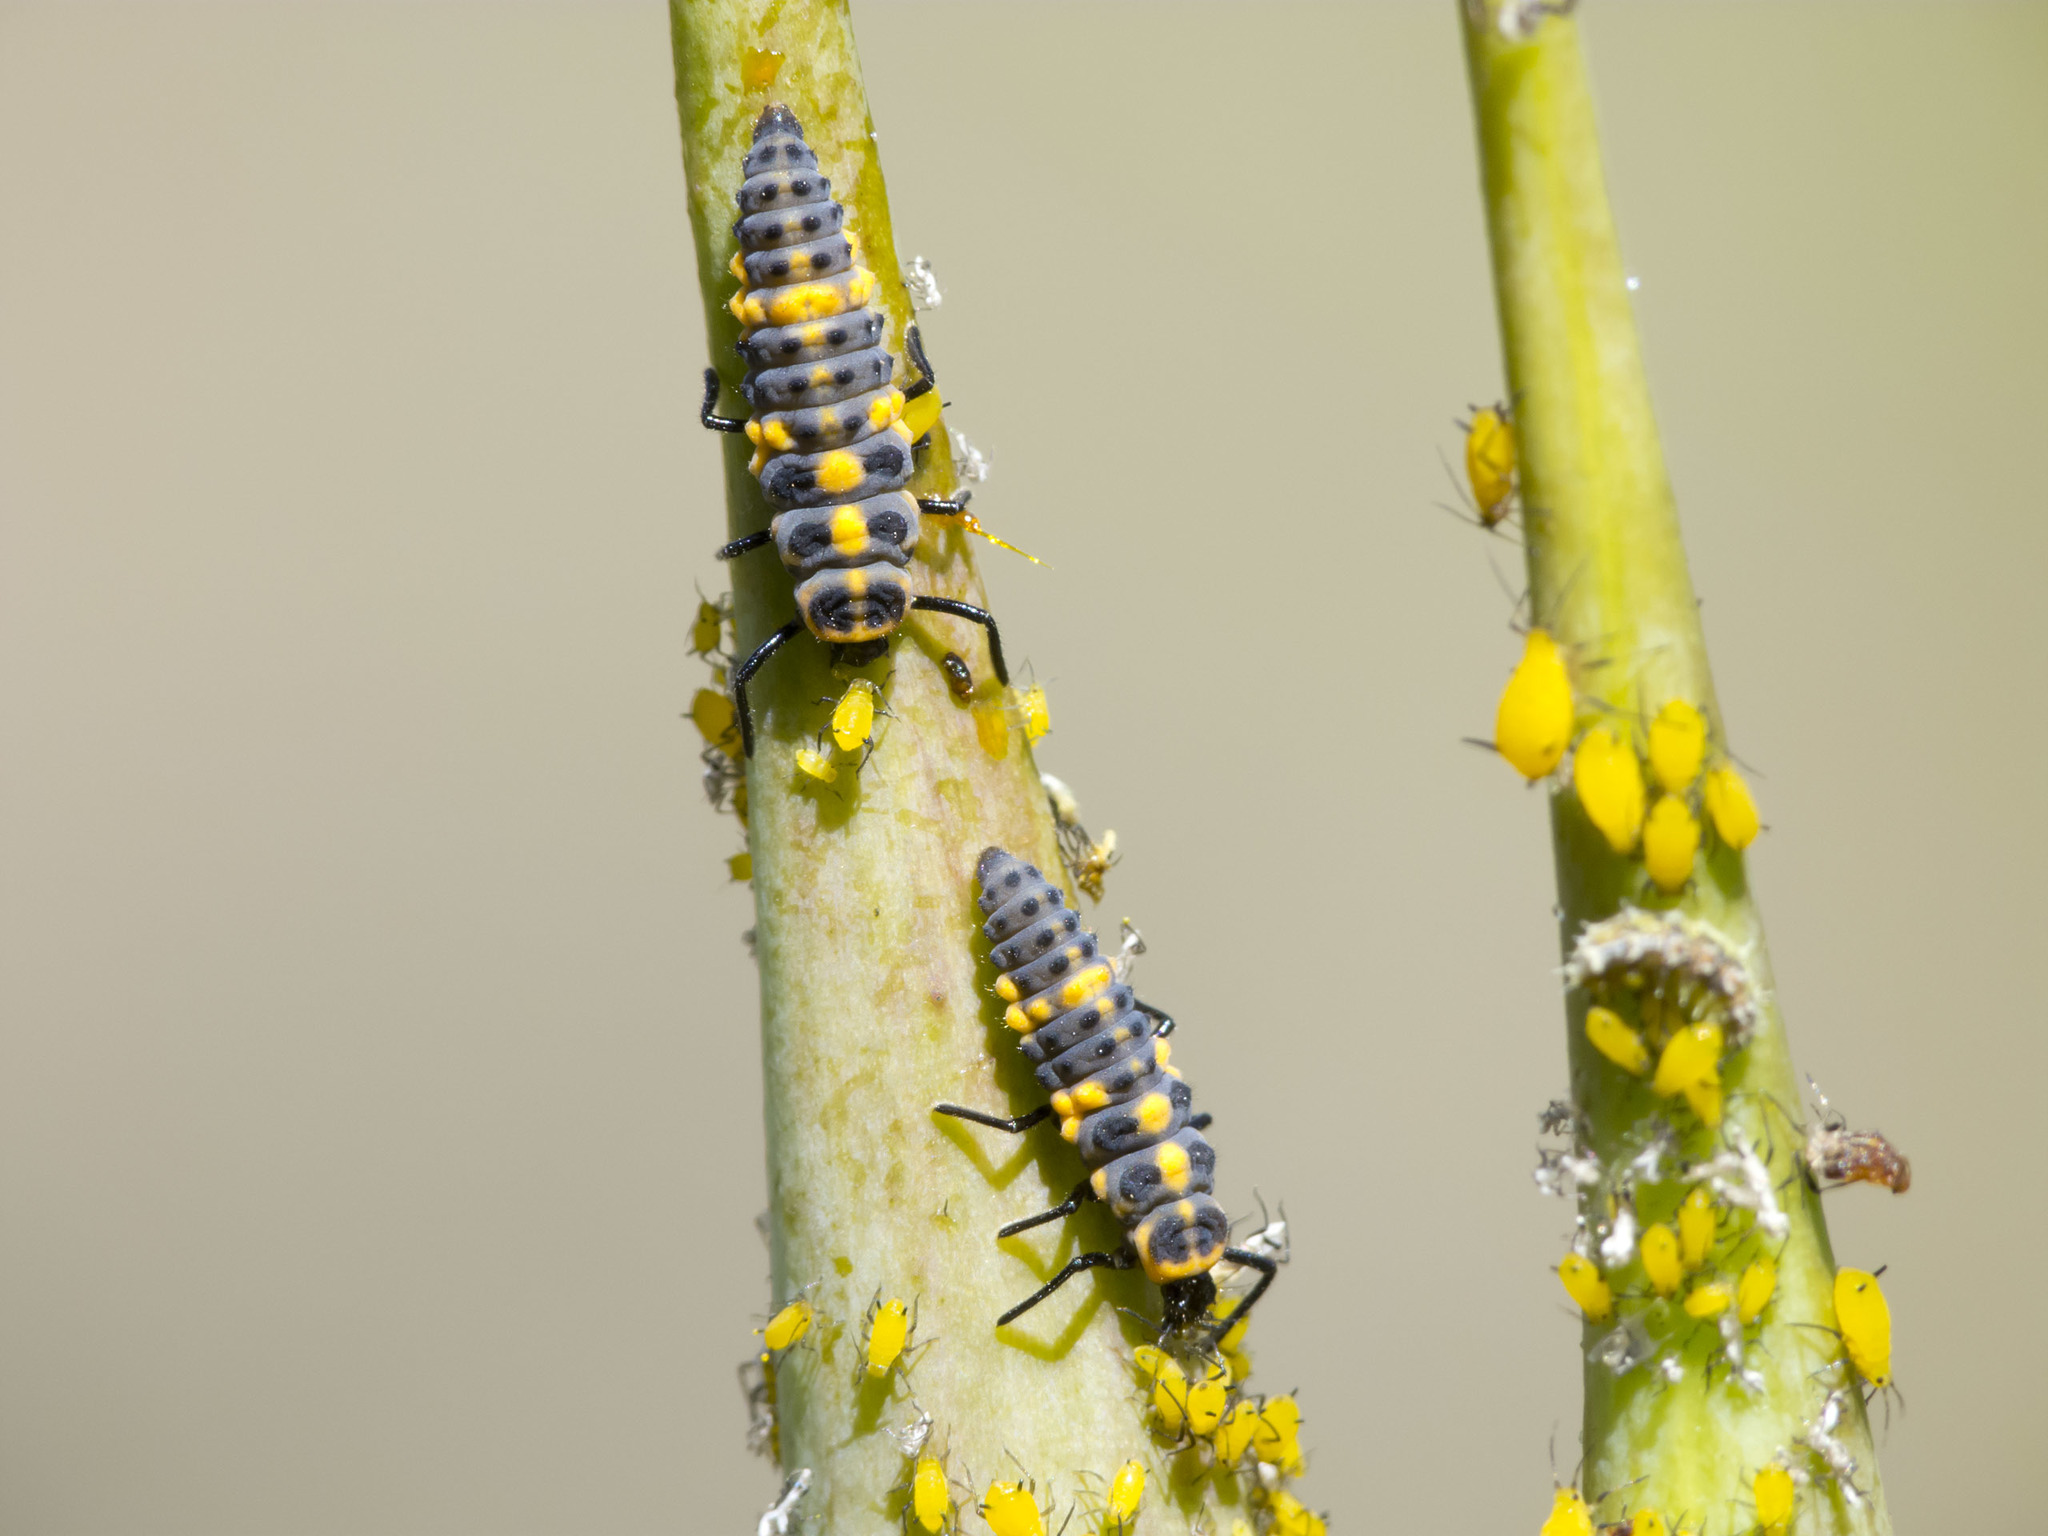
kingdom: Animalia
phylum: Arthropoda
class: Insecta
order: Coleoptera
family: Coccinellidae
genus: Cycloneda
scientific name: Cycloneda sanguinea
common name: Ladybird beetle
